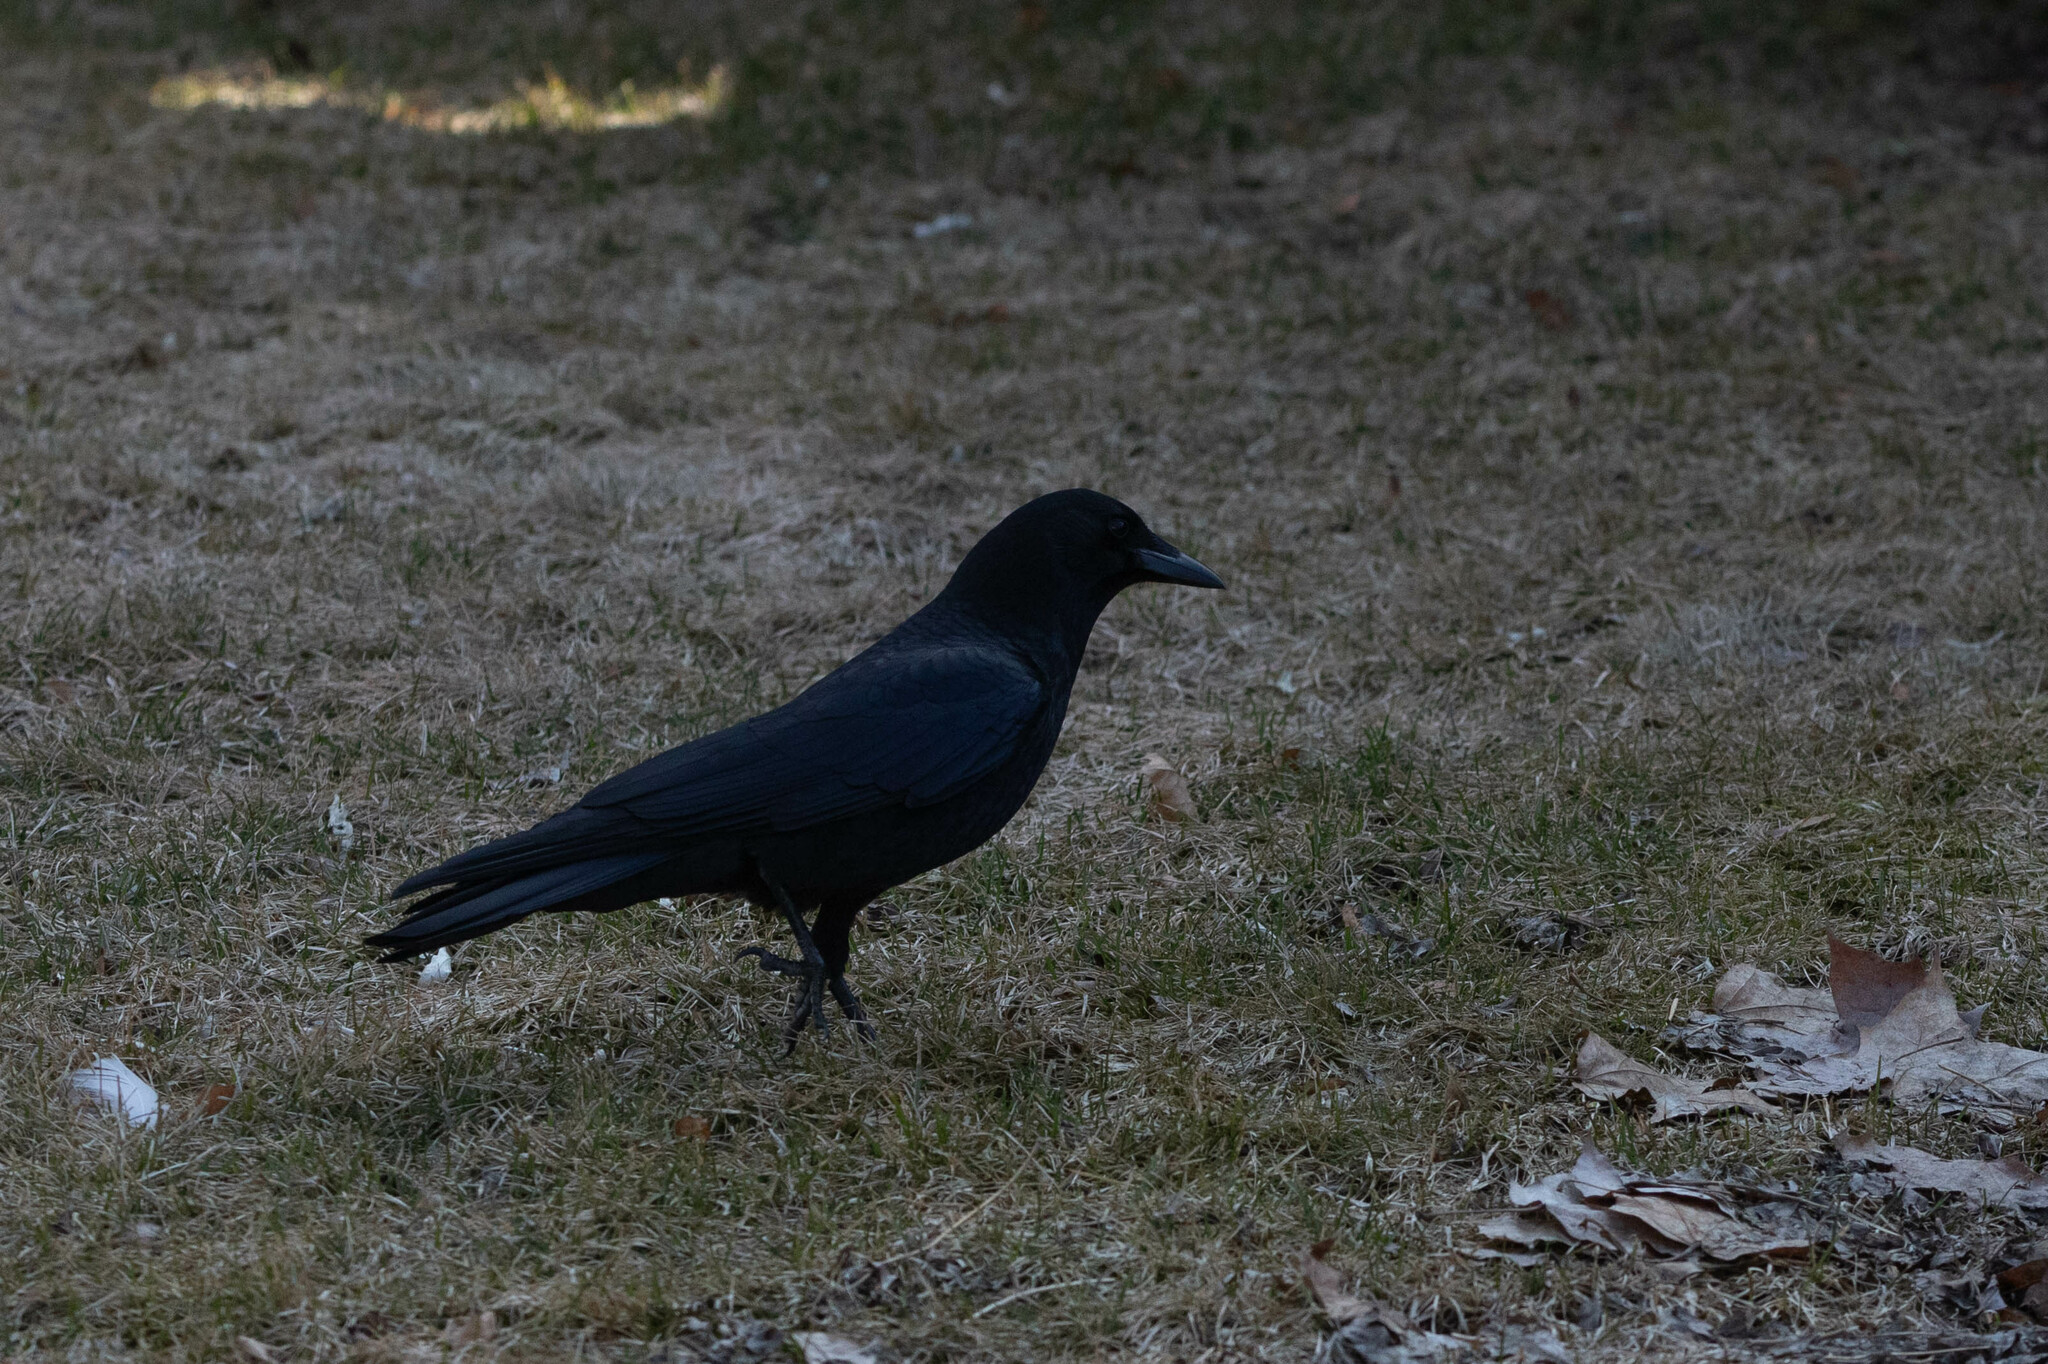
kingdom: Animalia
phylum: Chordata
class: Aves
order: Passeriformes
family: Corvidae
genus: Corvus
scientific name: Corvus brachyrhynchos
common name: American crow
